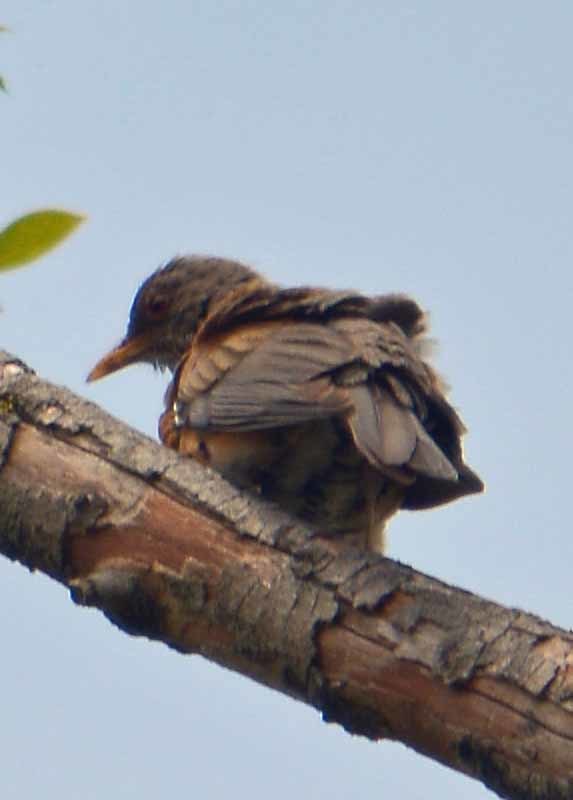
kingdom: Animalia
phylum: Chordata
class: Aves
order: Passeriformes
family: Turdidae
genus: Turdus
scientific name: Turdus rufopalliatus
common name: Rufous-backed robin
